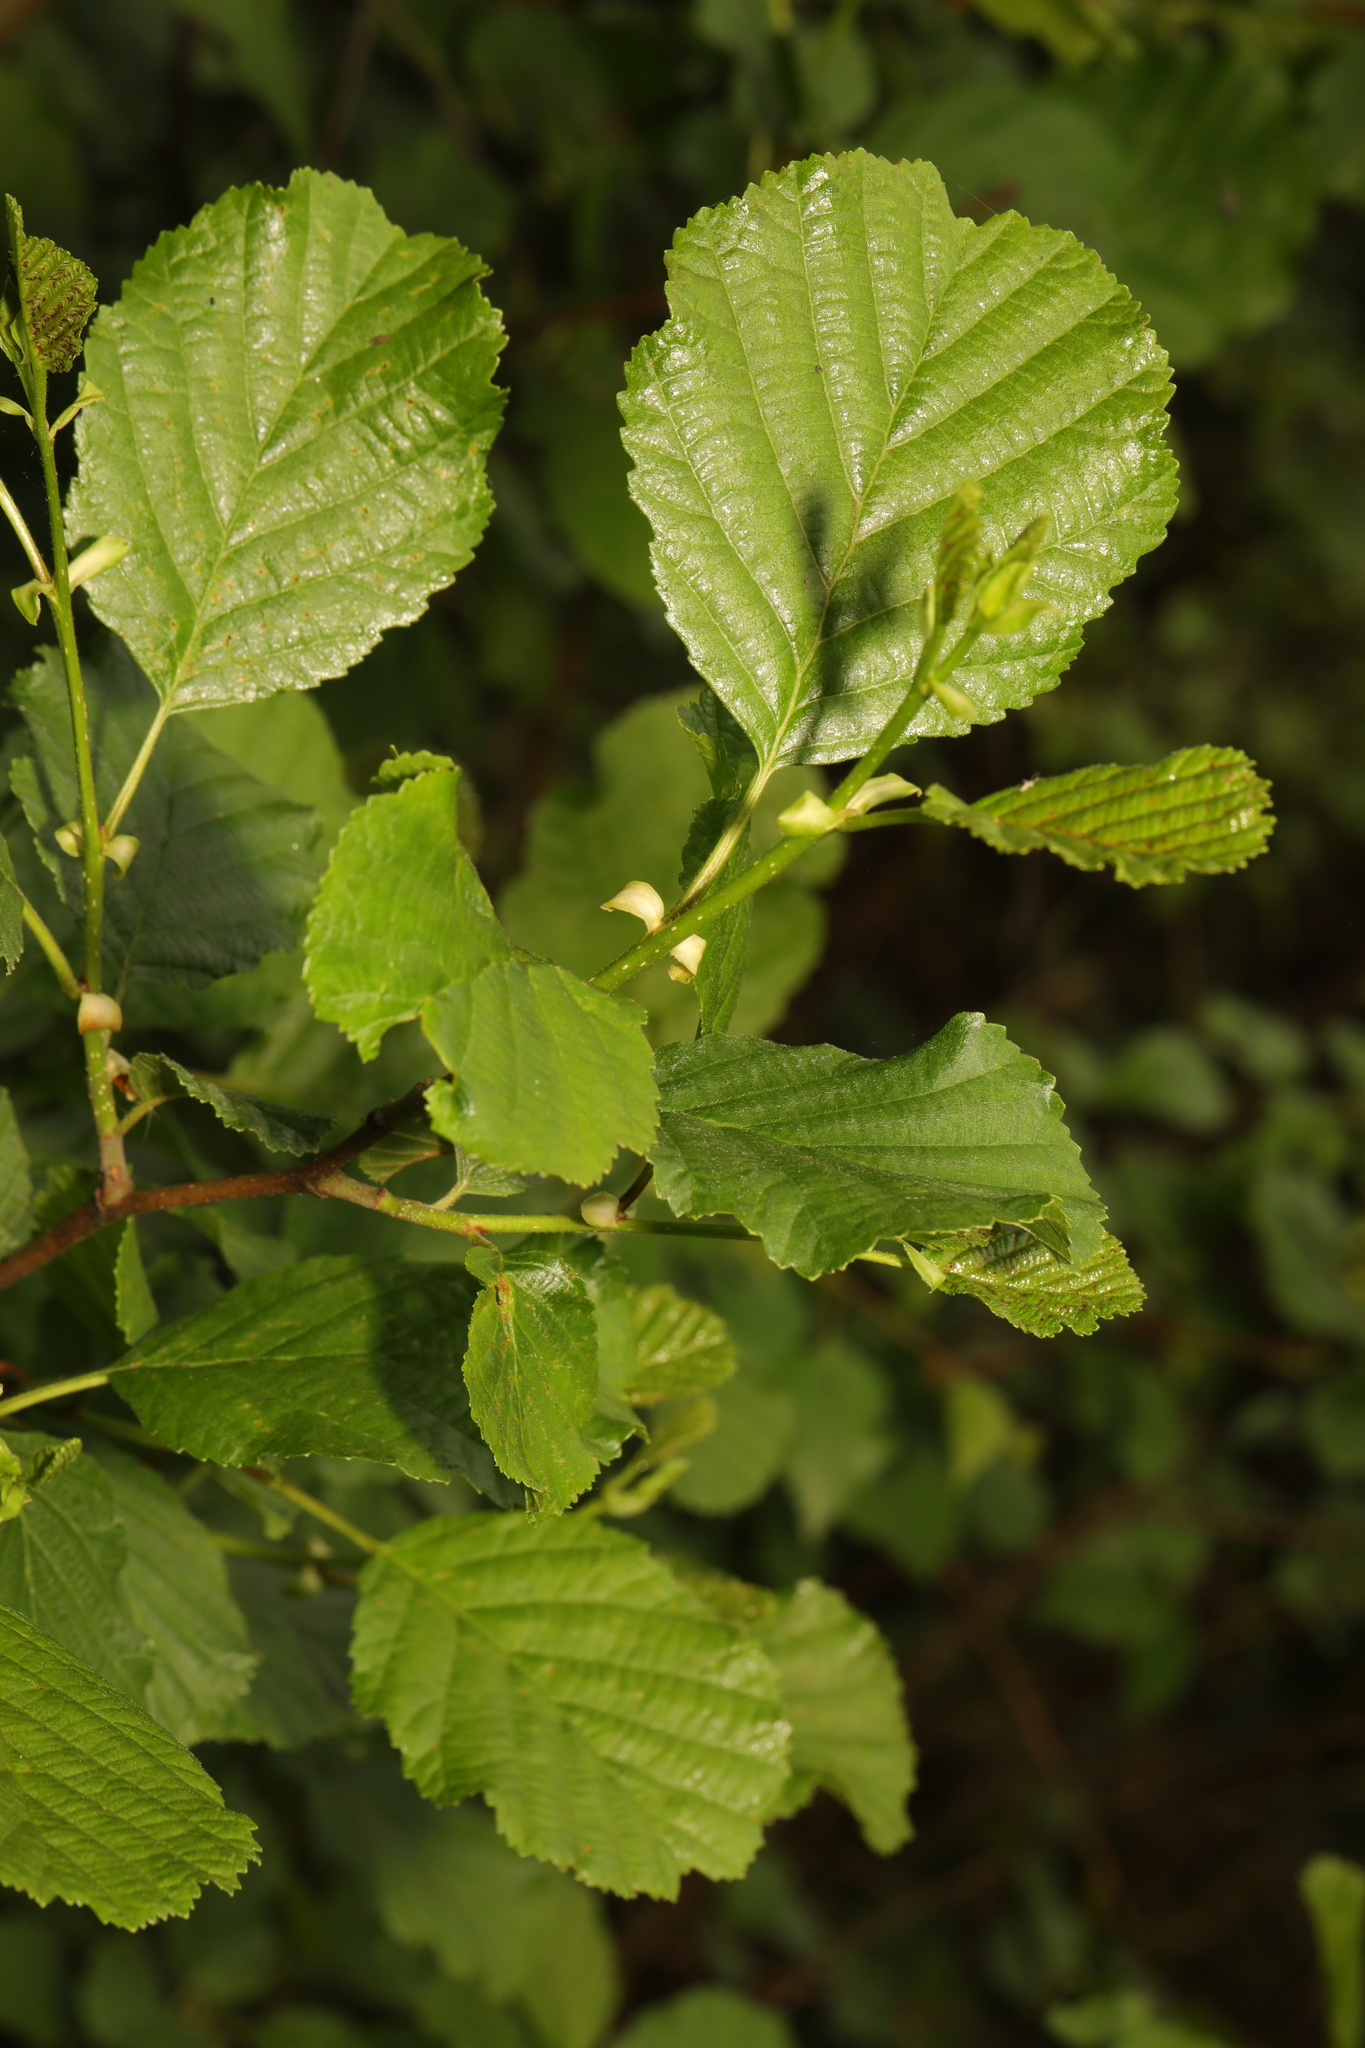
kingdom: Plantae
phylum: Tracheophyta
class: Magnoliopsida
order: Fagales
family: Betulaceae
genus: Alnus
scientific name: Alnus glutinosa
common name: Black alder
